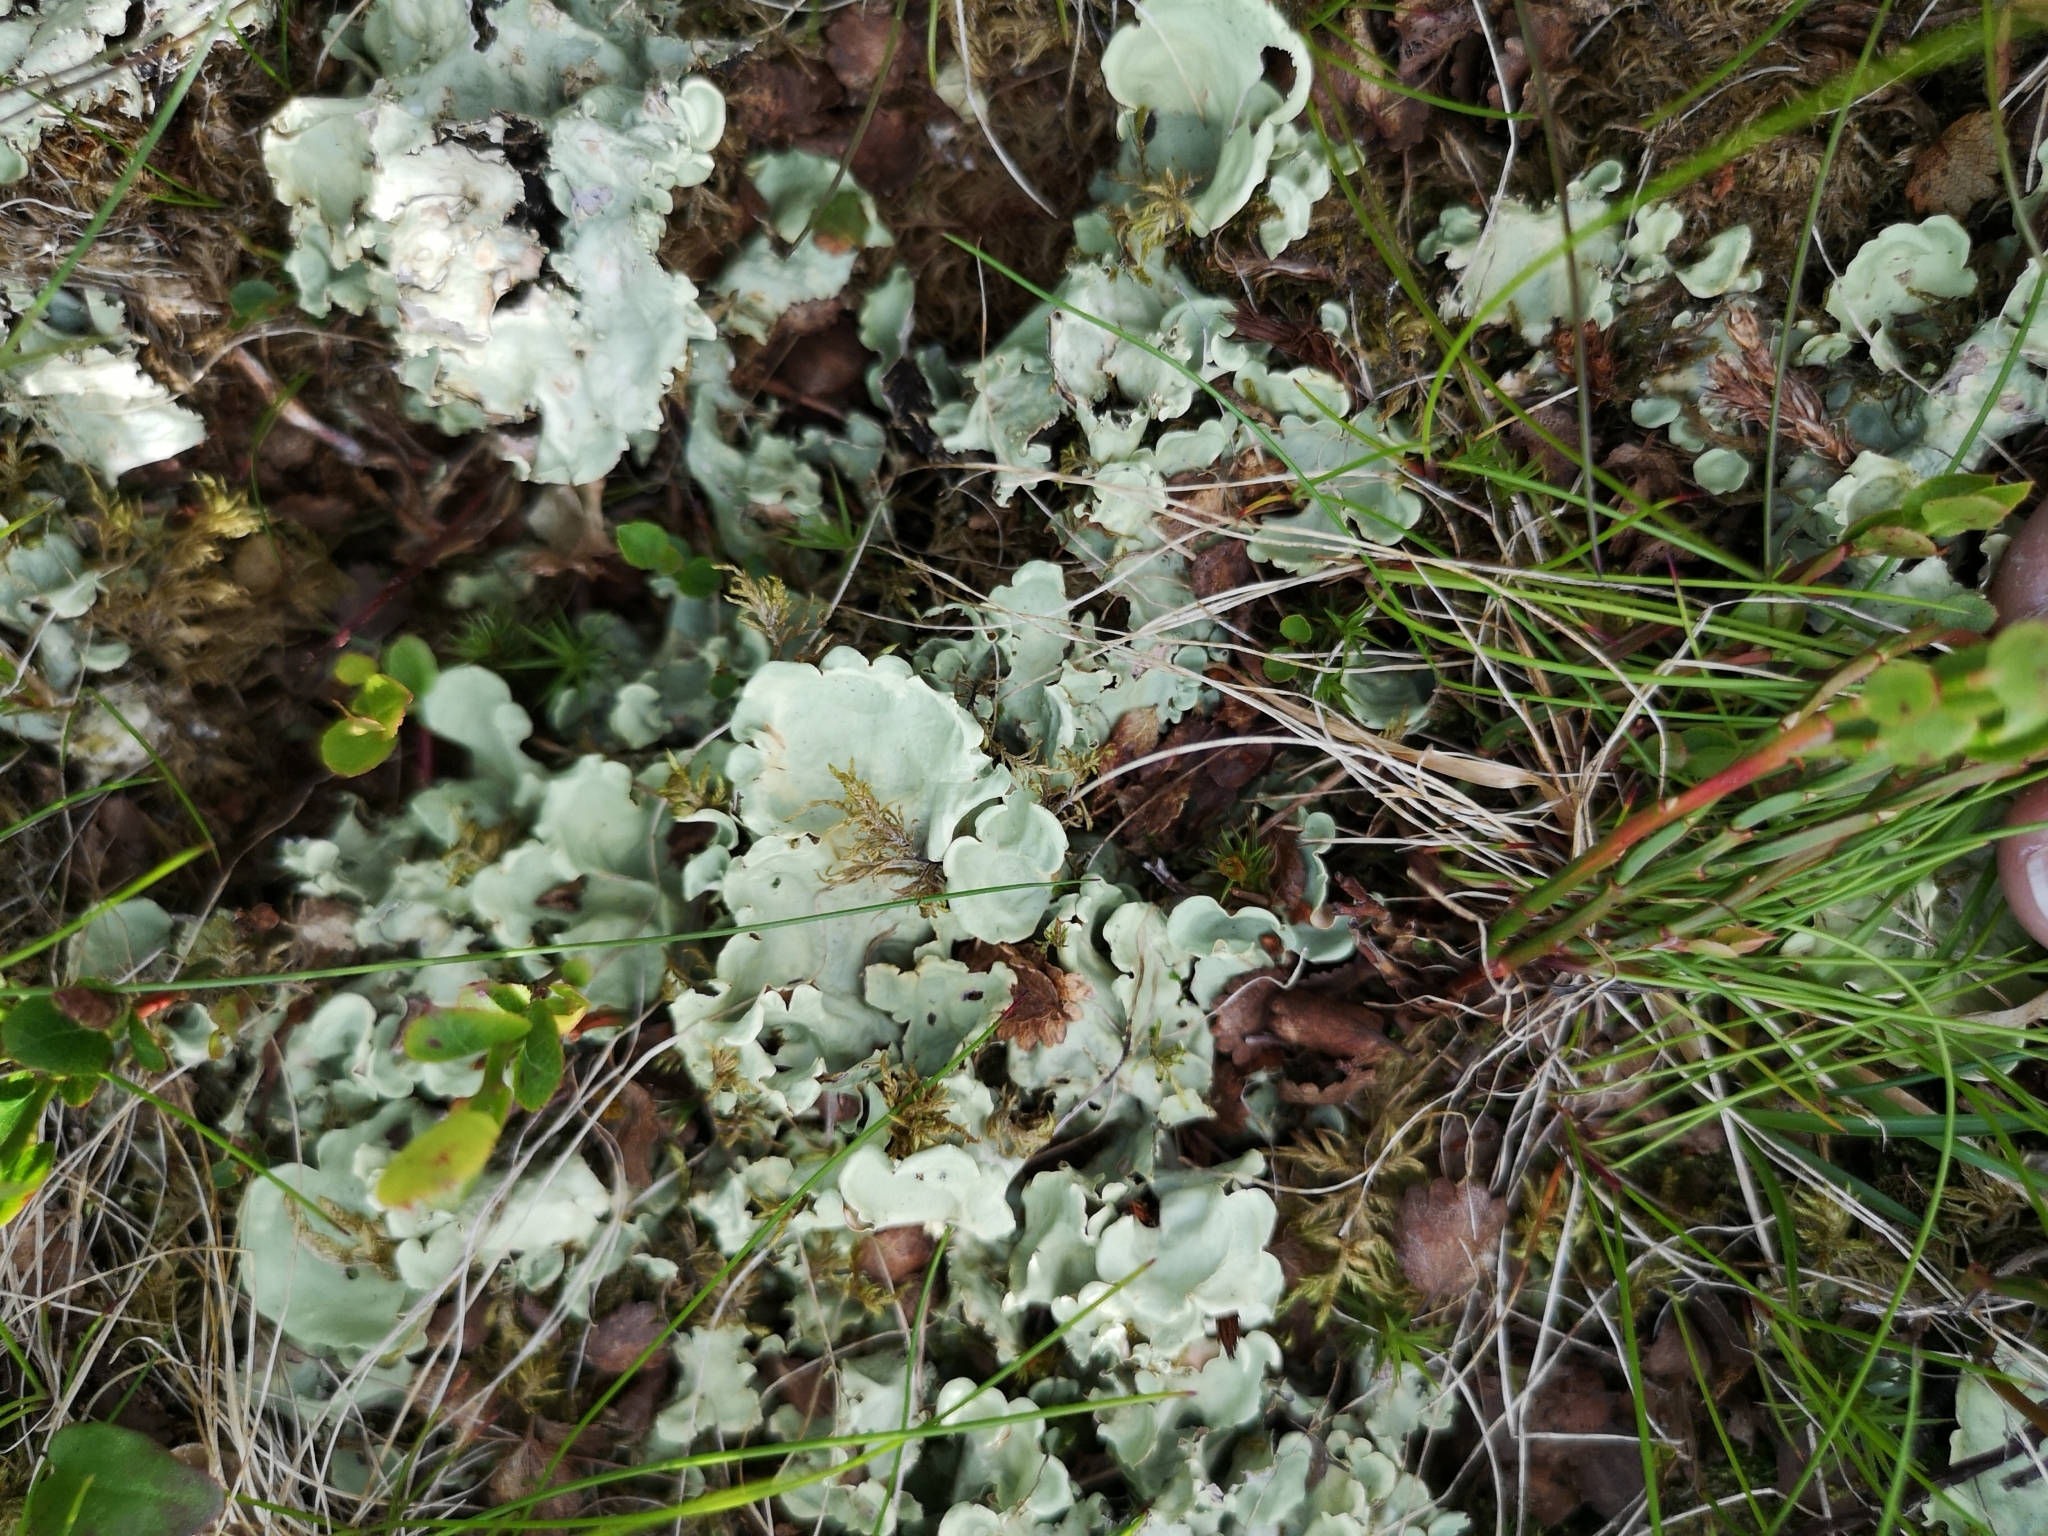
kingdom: Fungi
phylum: Ascomycota
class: Lecanoromycetes
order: Peltigerales
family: Nephromataceae
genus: Nephroma
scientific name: Nephroma arcticum
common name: Arctic kidney-lichen
